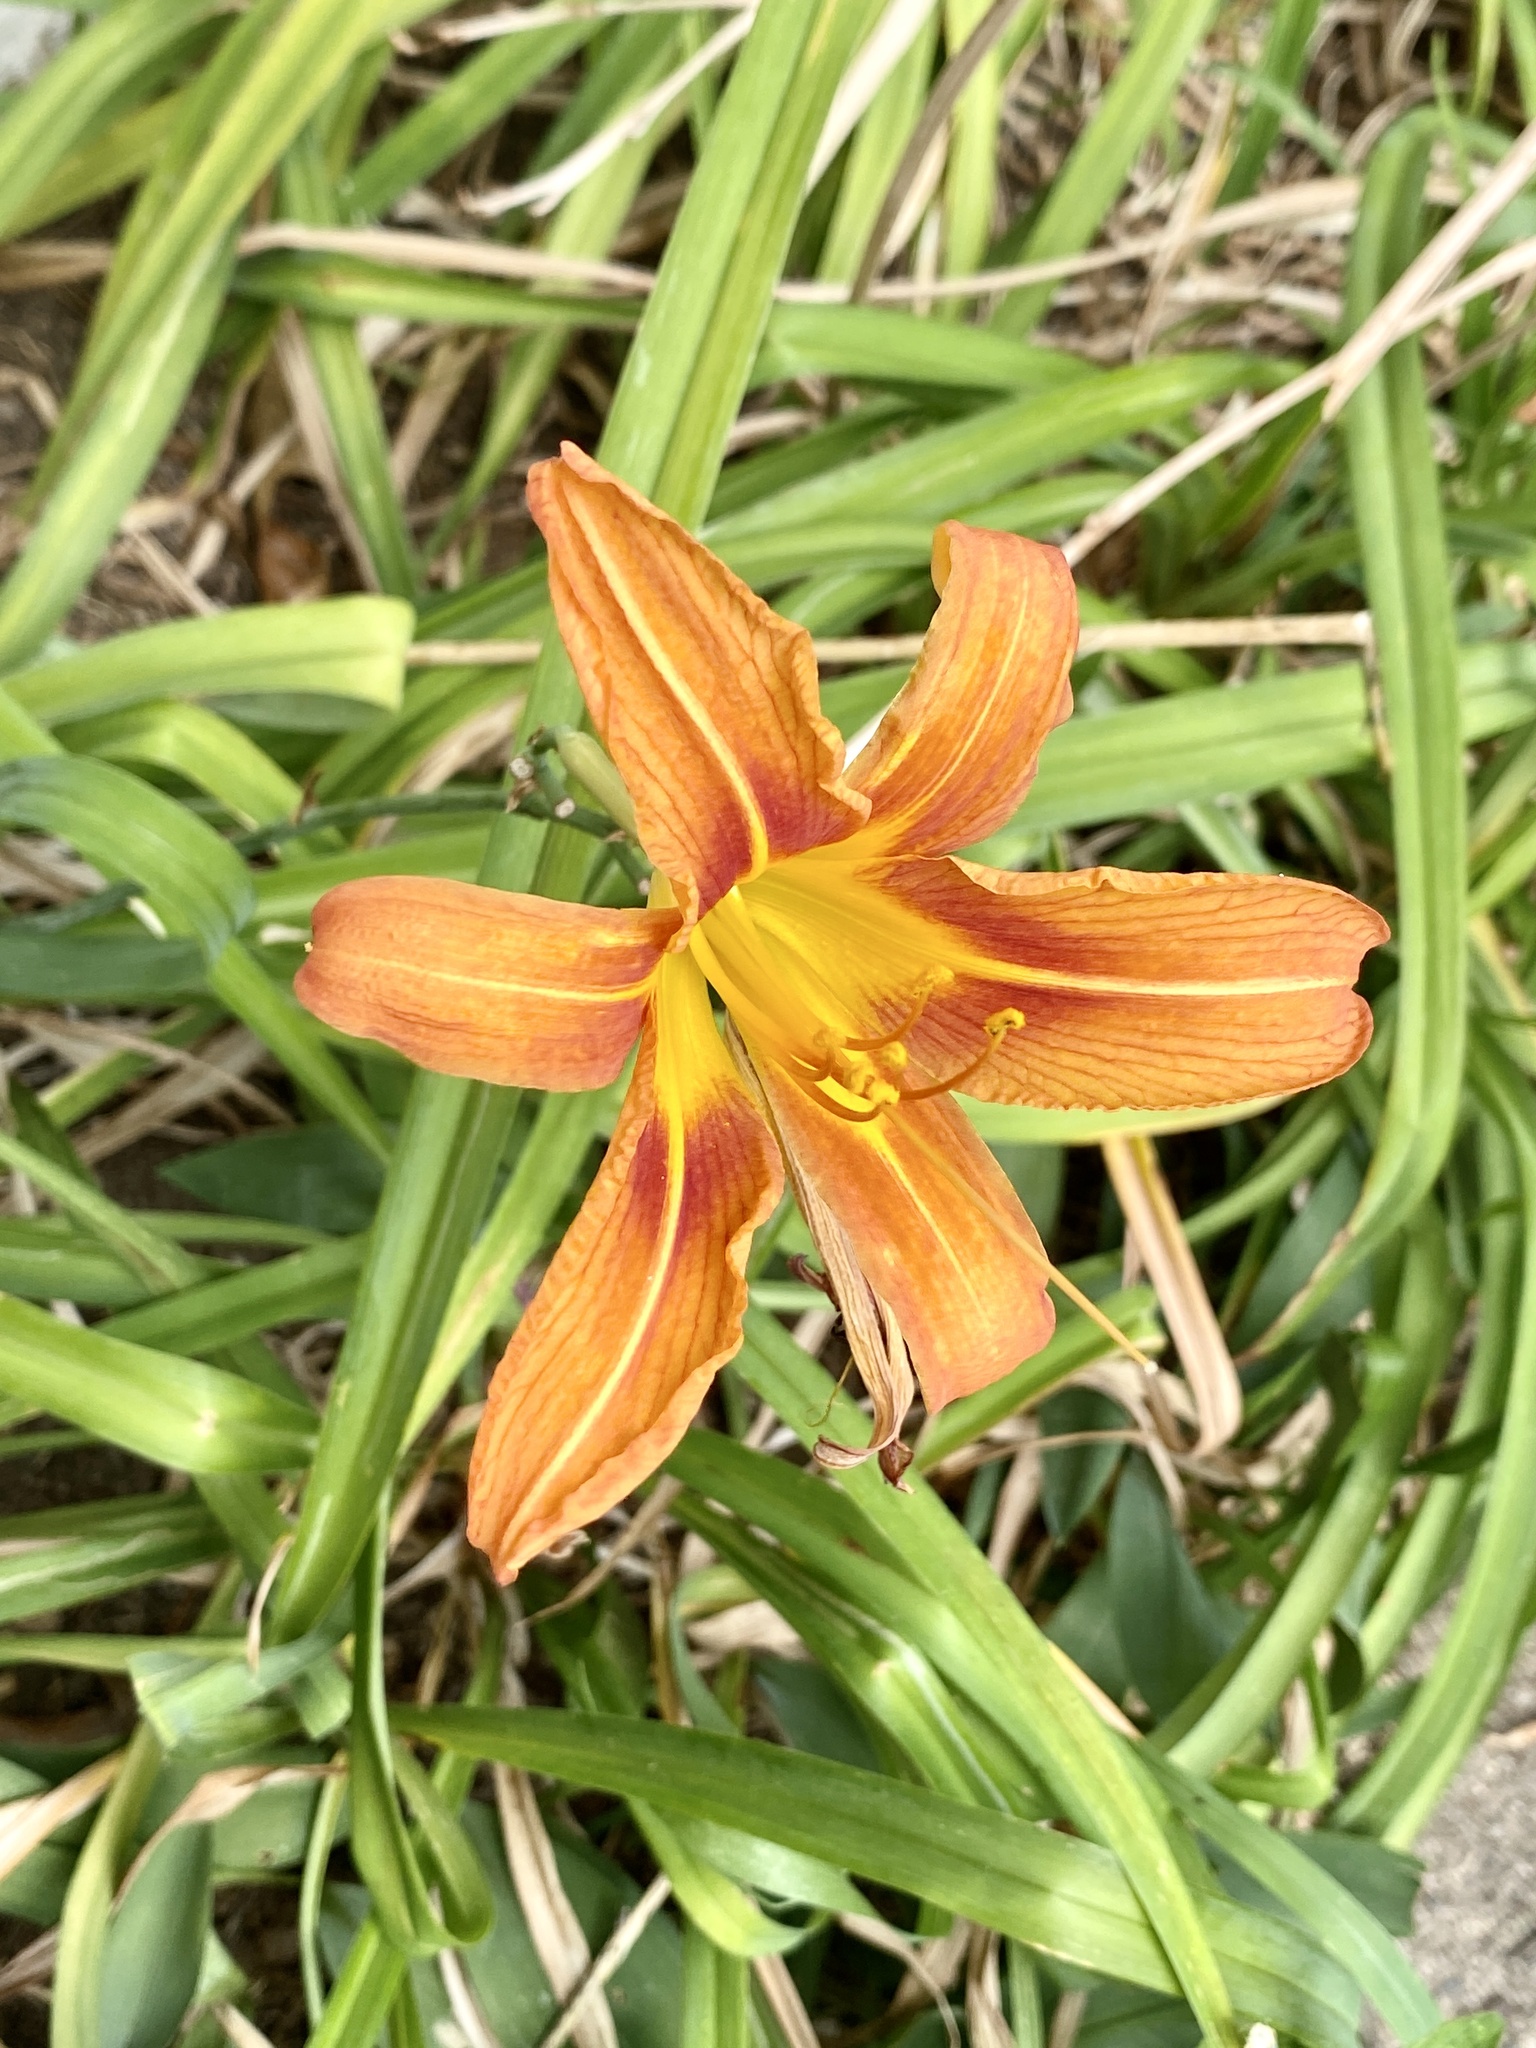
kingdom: Plantae
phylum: Tracheophyta
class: Liliopsida
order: Asparagales
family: Asphodelaceae
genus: Hemerocallis
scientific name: Hemerocallis fulva
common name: Orange day-lily
